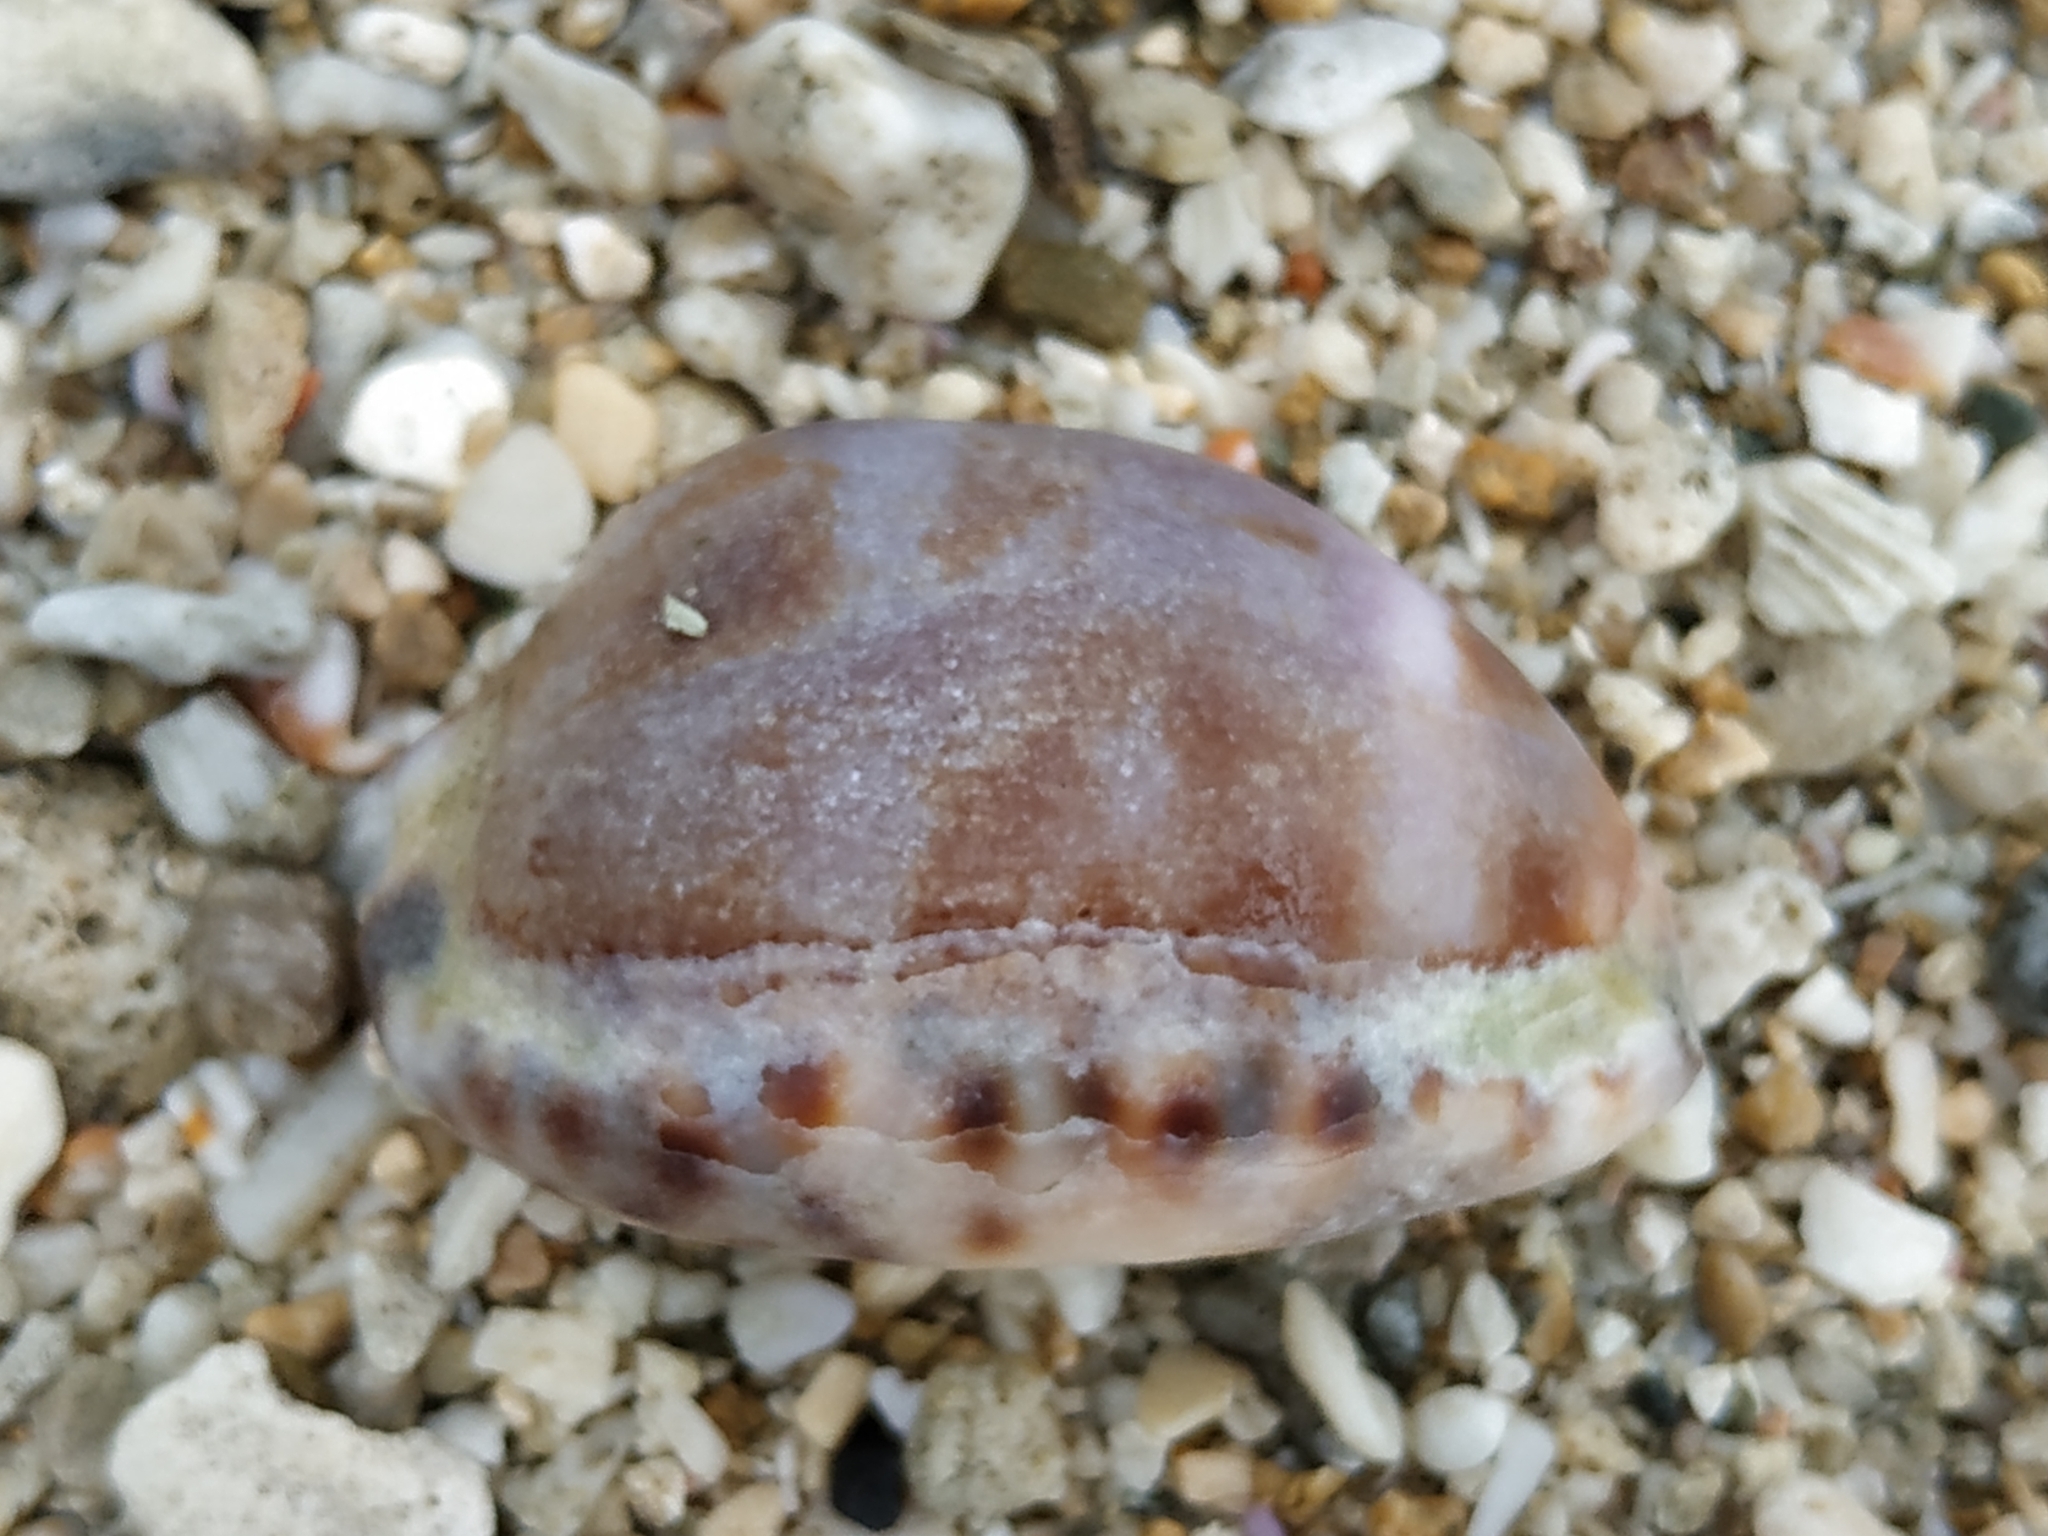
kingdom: Animalia
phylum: Mollusca
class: Gastropoda
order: Littorinimorpha
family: Cypraeidae
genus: Mauritia
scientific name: Mauritia arabica
